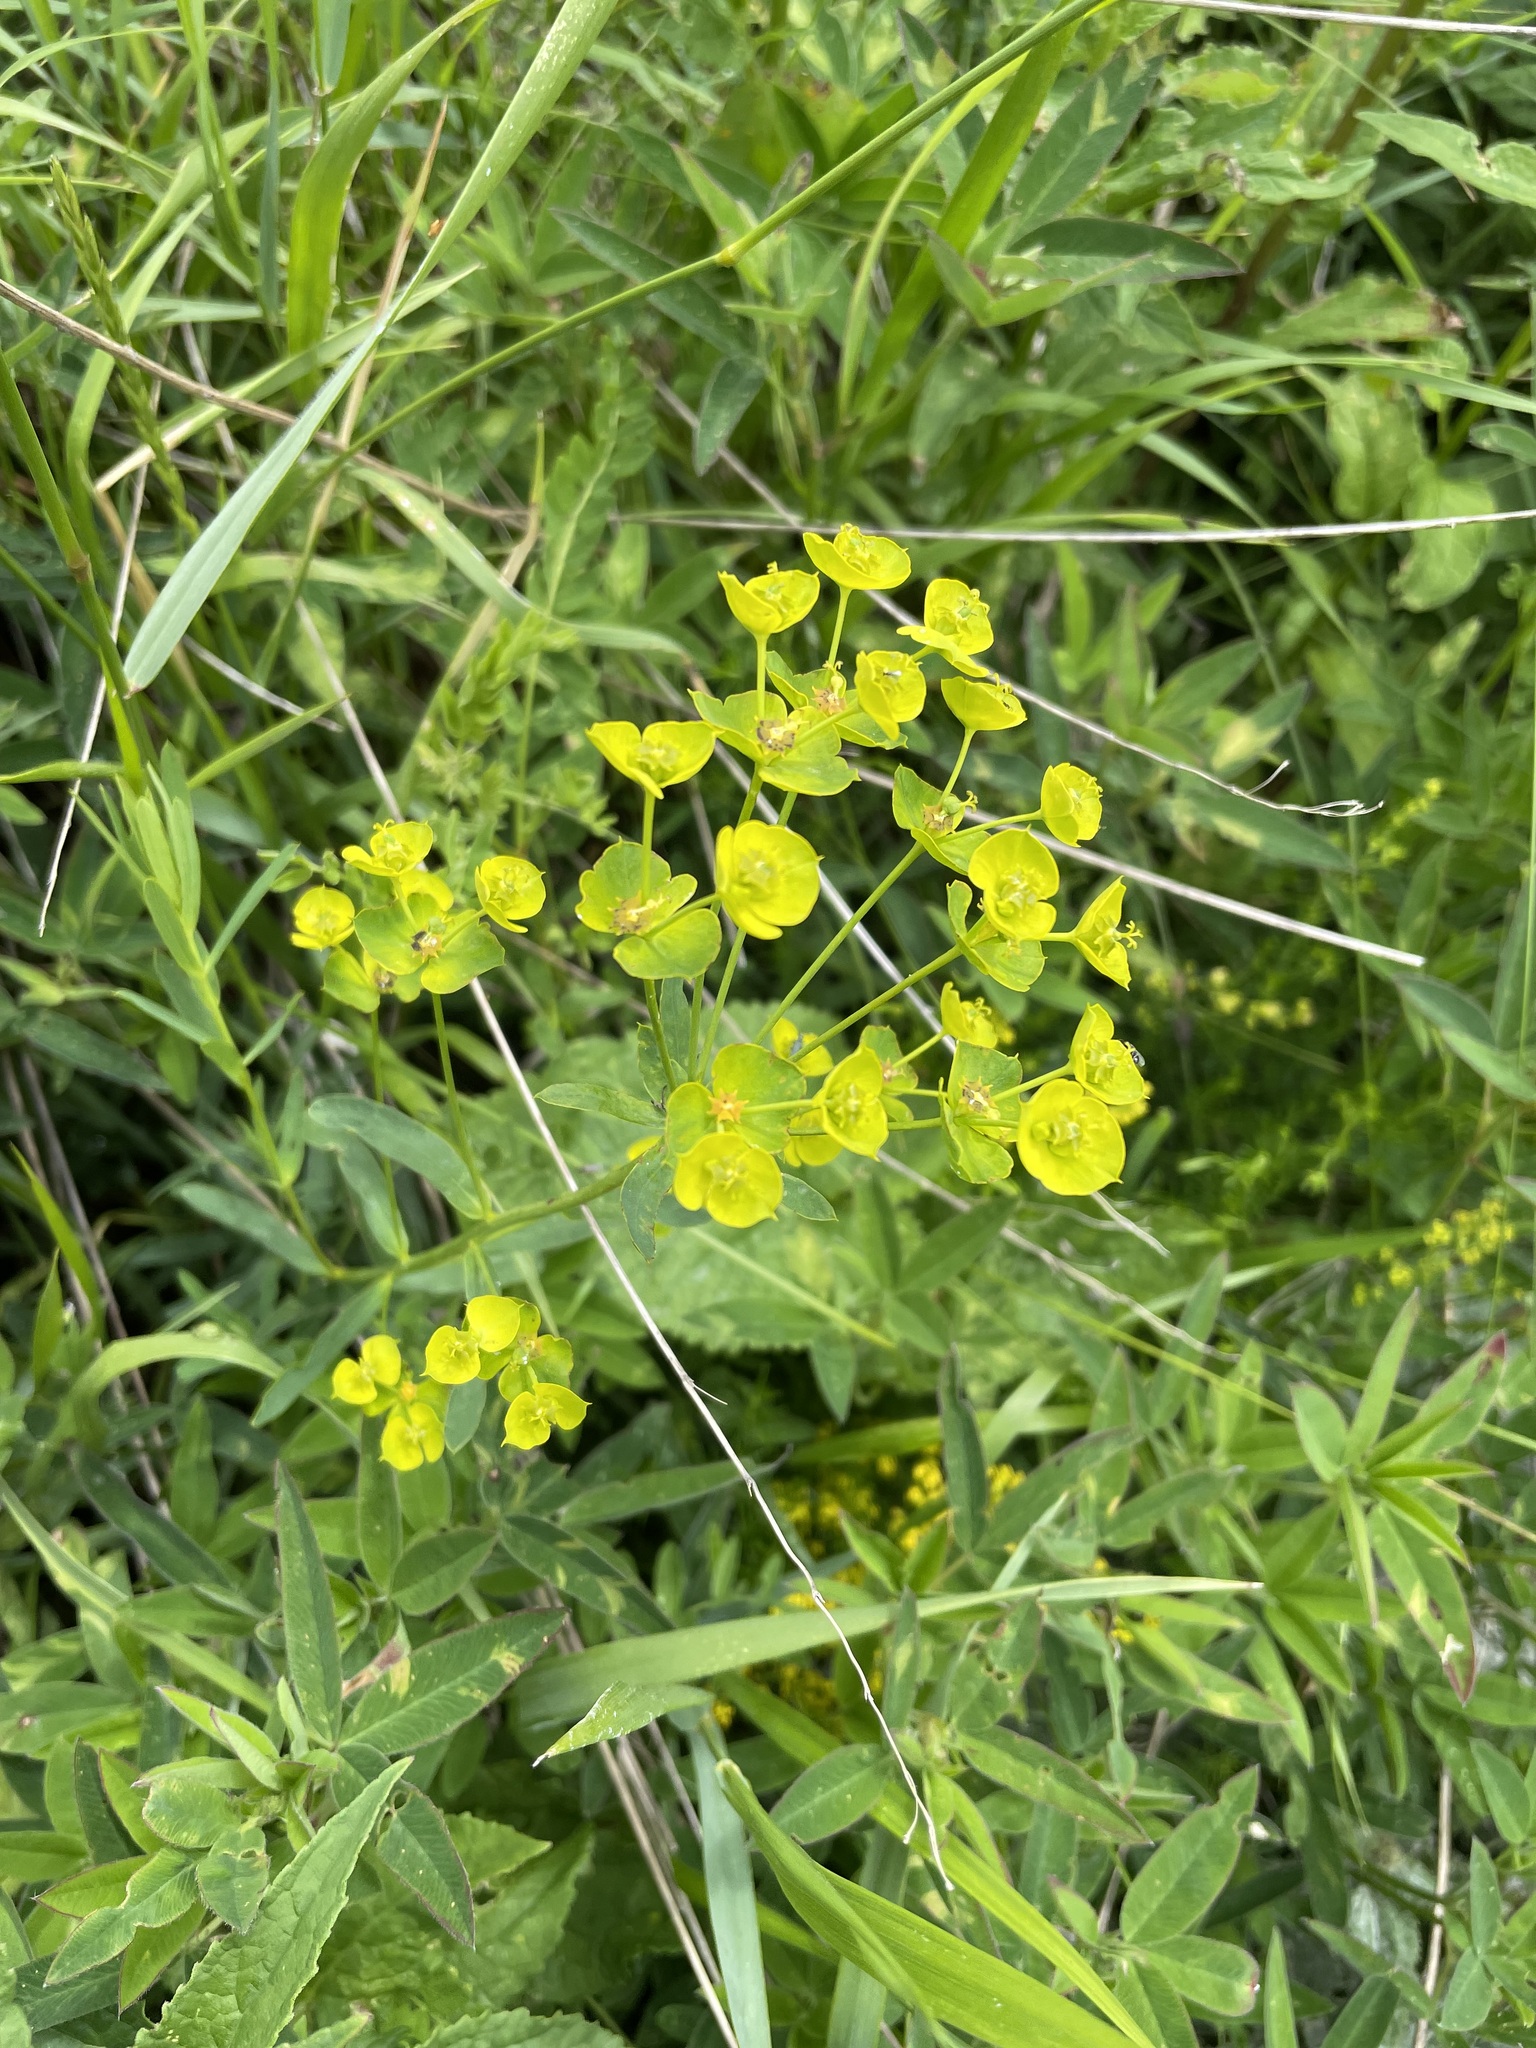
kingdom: Plantae
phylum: Tracheophyta
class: Magnoliopsida
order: Malpighiales
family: Euphorbiaceae
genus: Euphorbia
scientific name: Euphorbia virgata
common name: Leafy spurge
